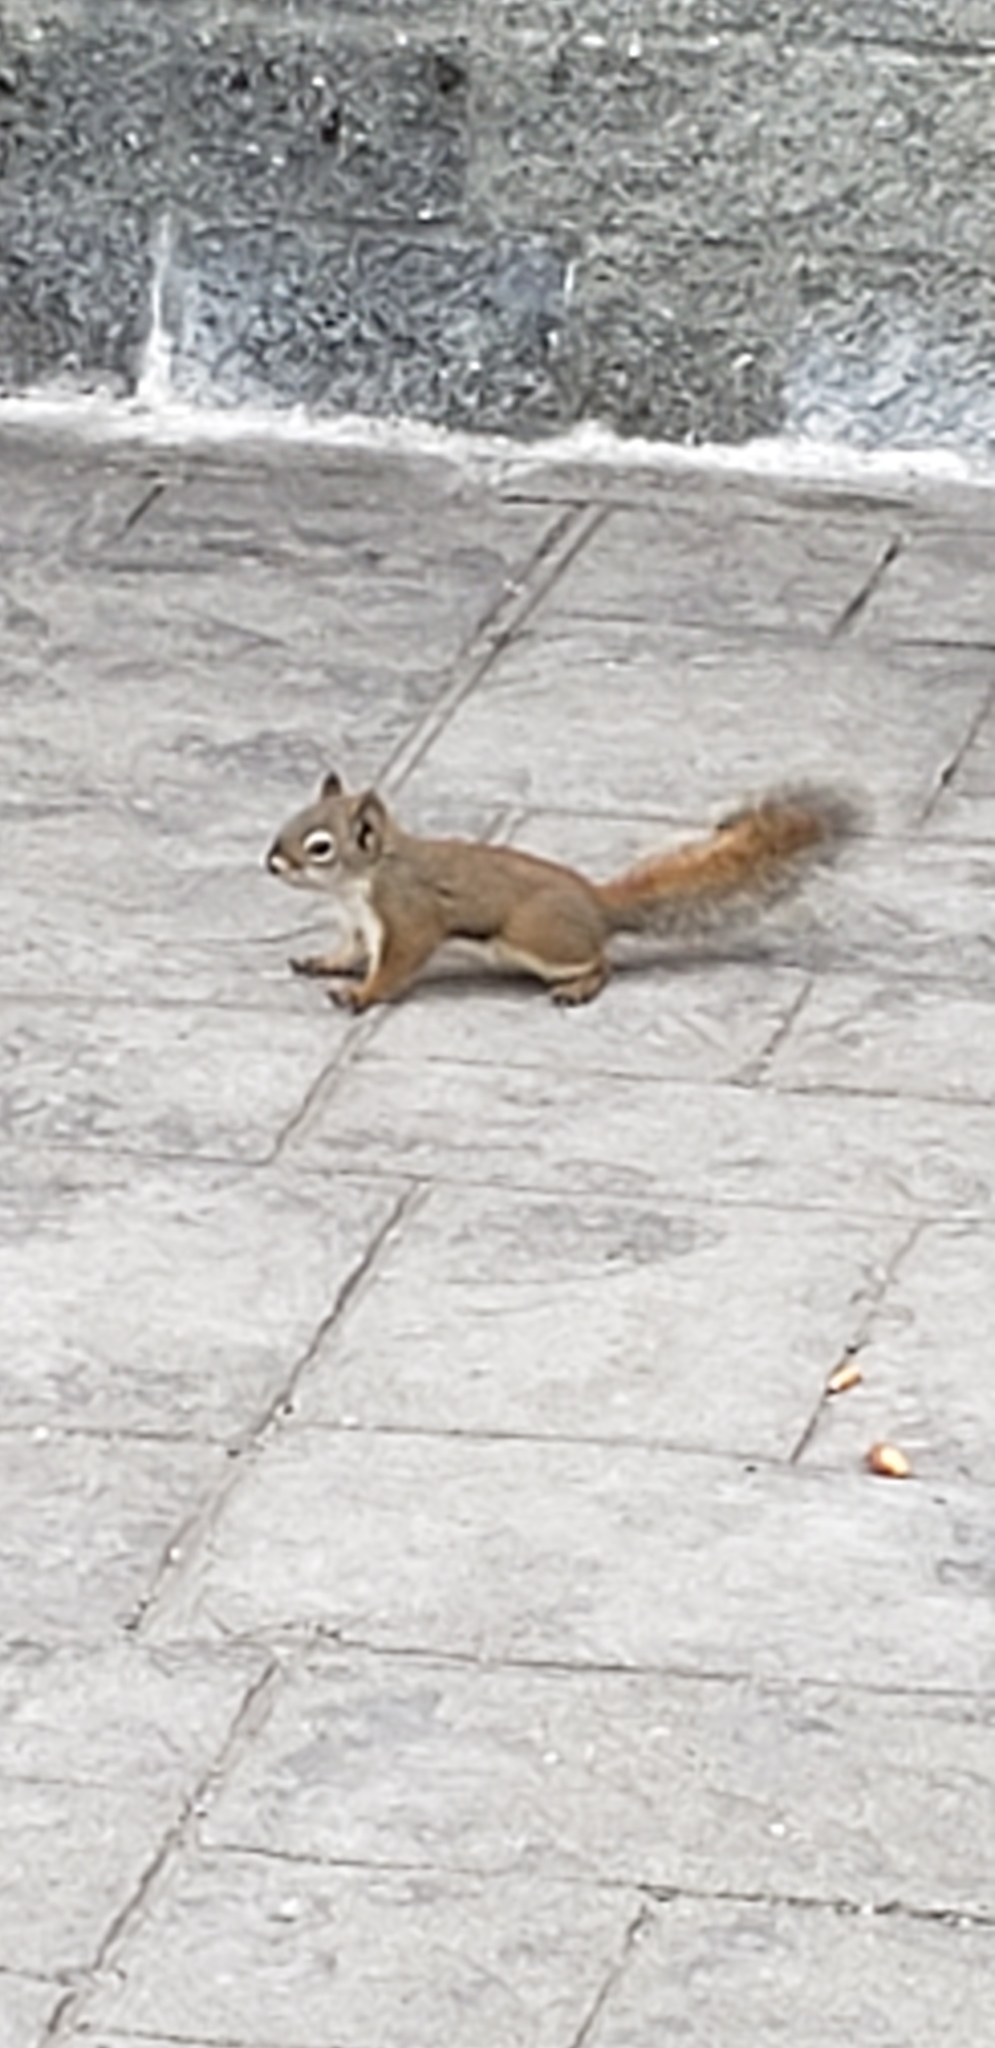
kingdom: Animalia
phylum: Chordata
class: Mammalia
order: Rodentia
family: Sciuridae
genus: Tamiasciurus
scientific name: Tamiasciurus hudsonicus
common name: Red squirrel
